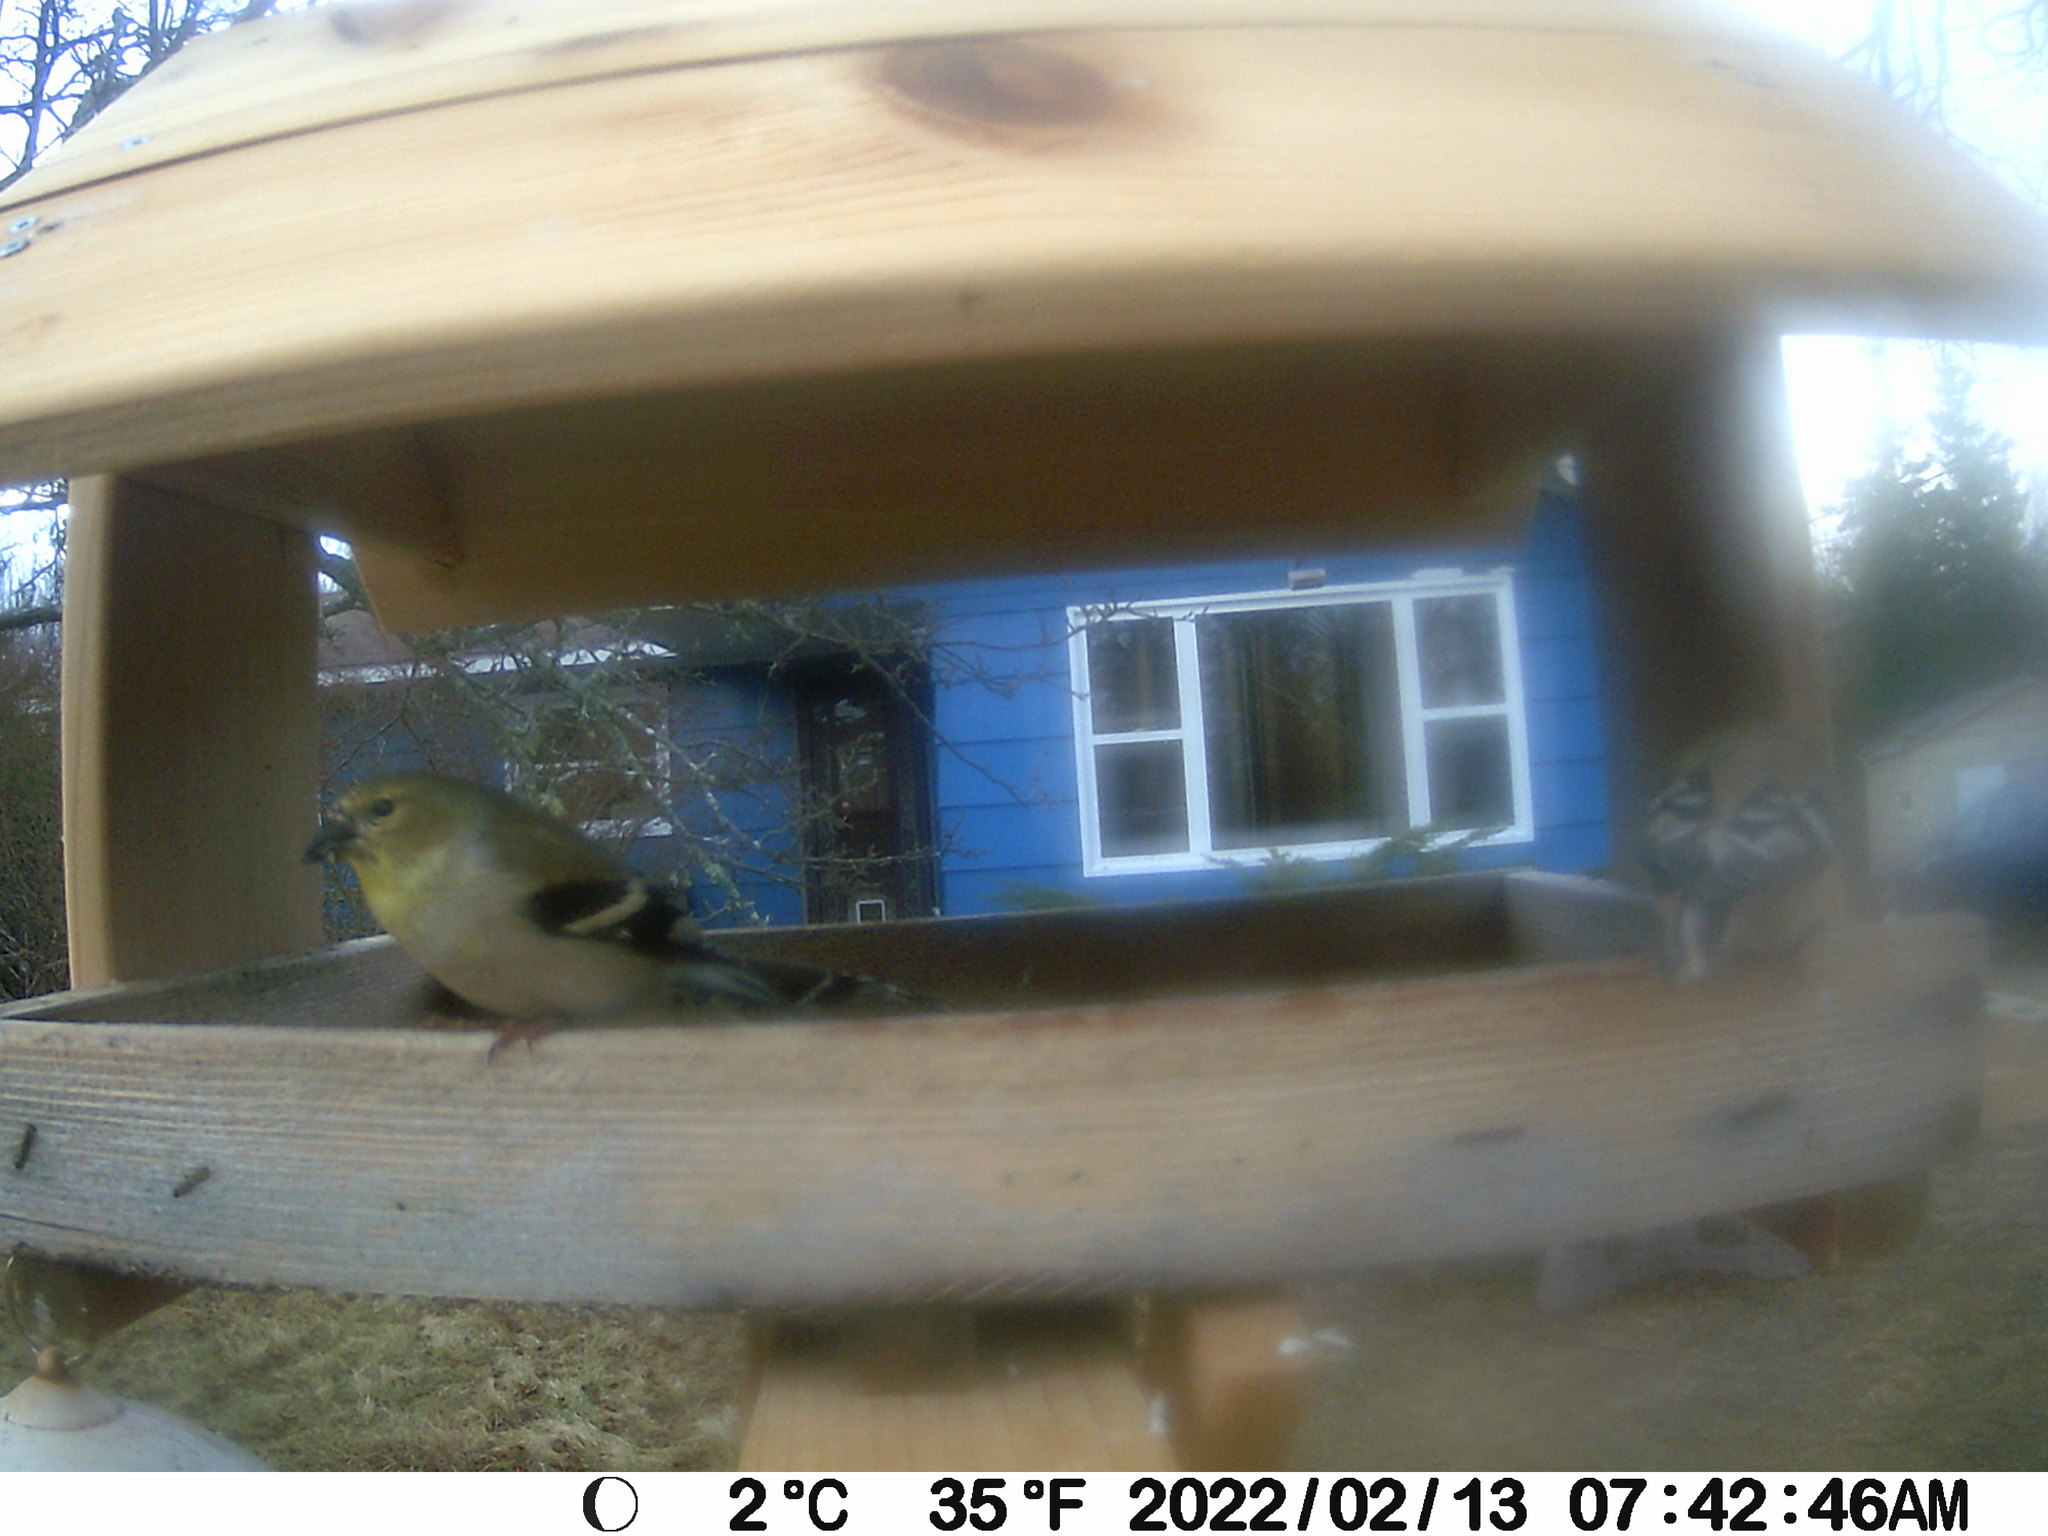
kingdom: Animalia
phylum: Chordata
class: Aves
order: Passeriformes
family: Fringillidae
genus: Spinus
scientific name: Spinus tristis
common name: American goldfinch
